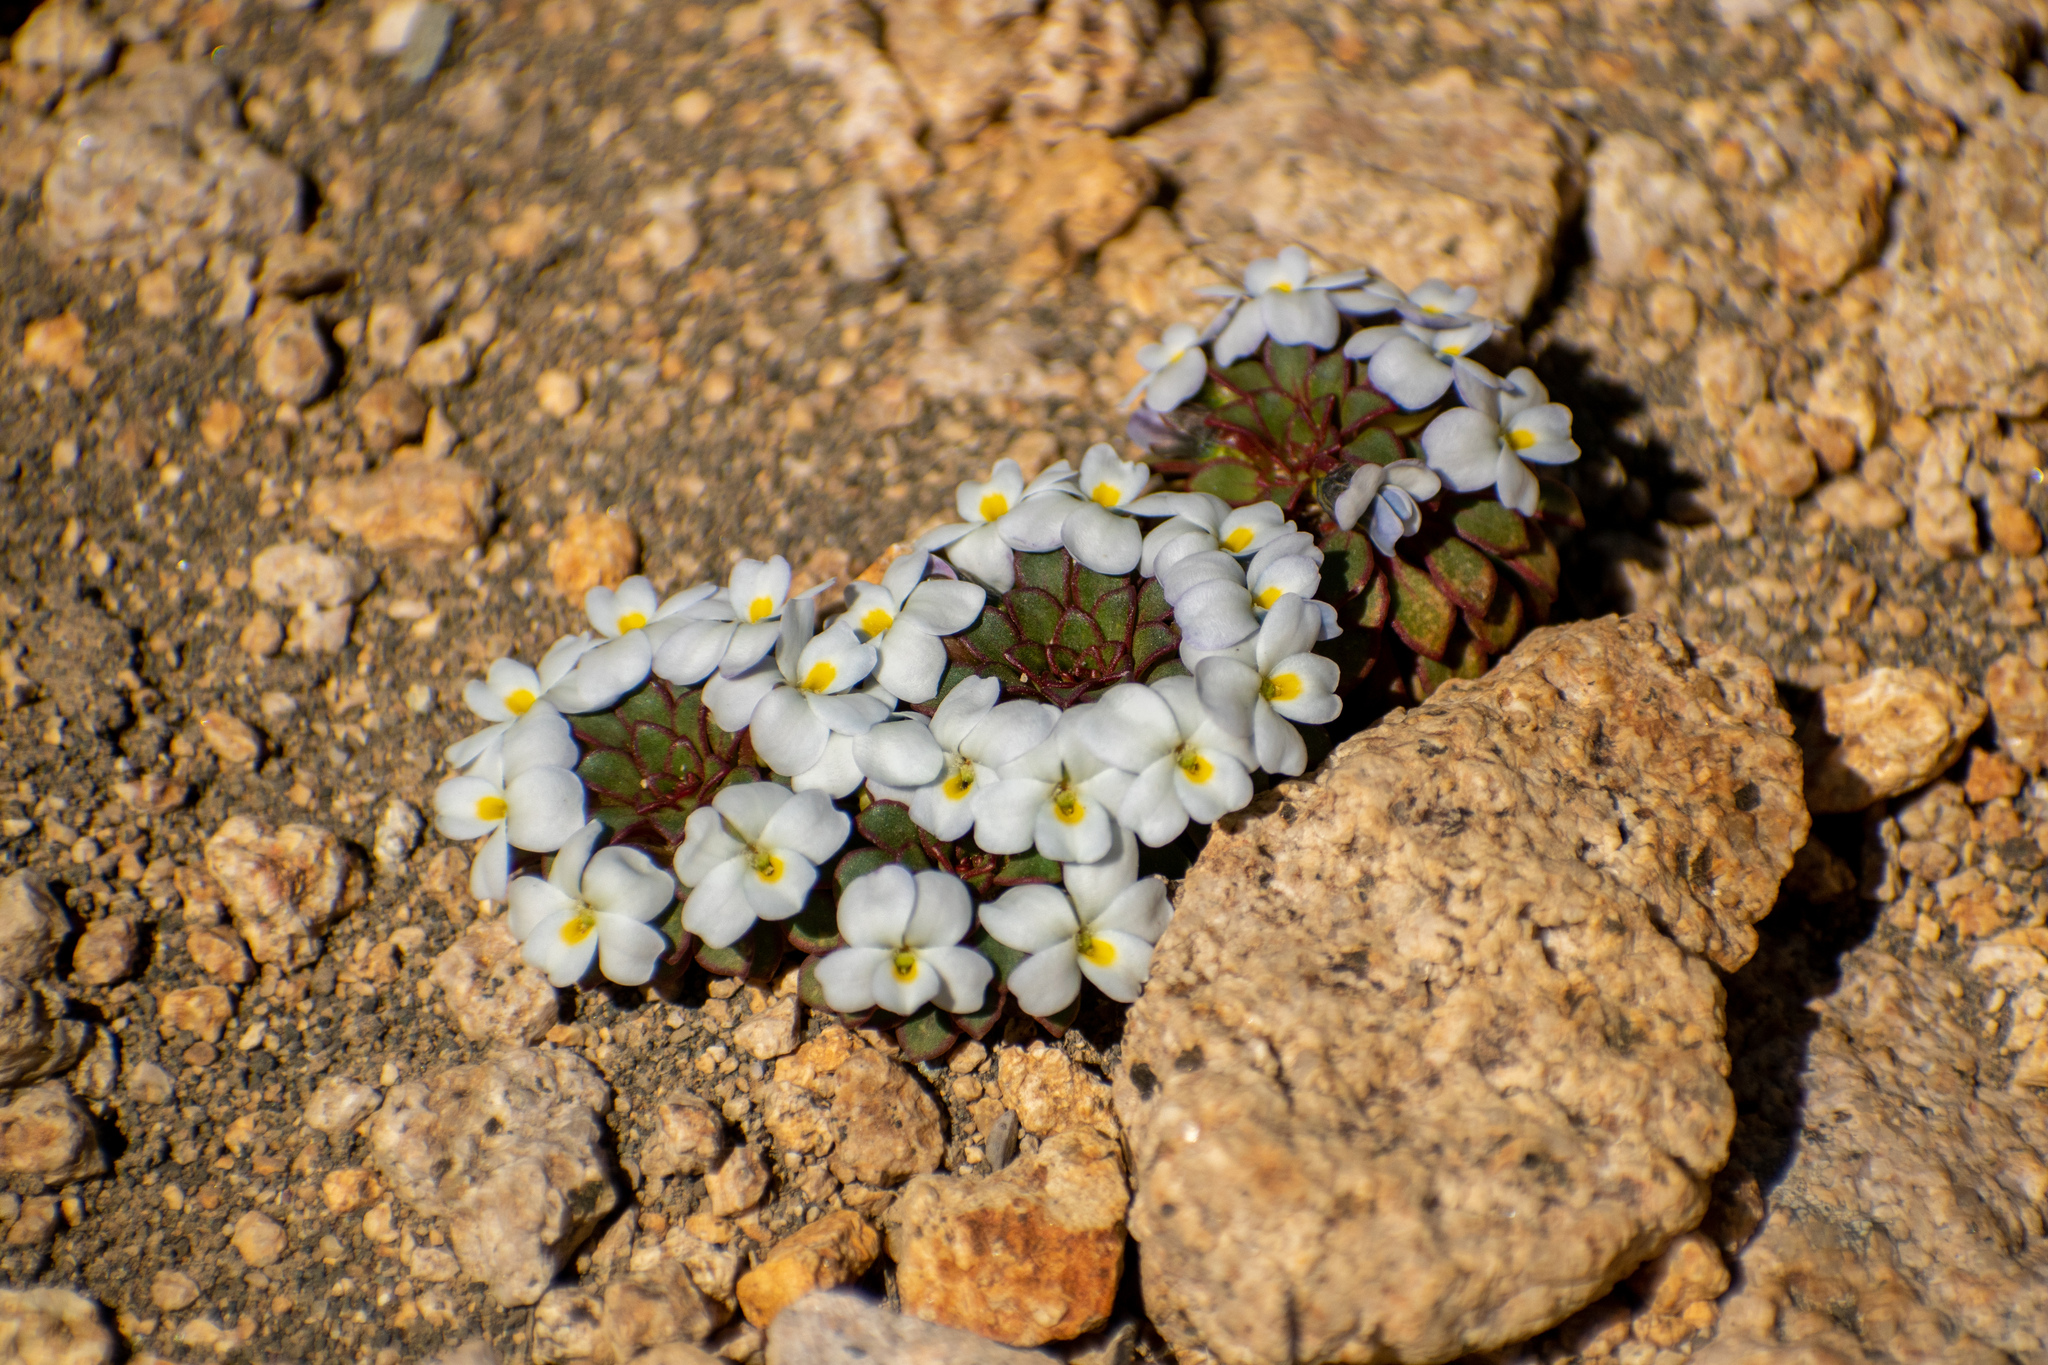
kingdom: Plantae
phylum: Tracheophyta
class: Magnoliopsida
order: Malpighiales
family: Violaceae
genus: Viola
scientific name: Viola sacculus
